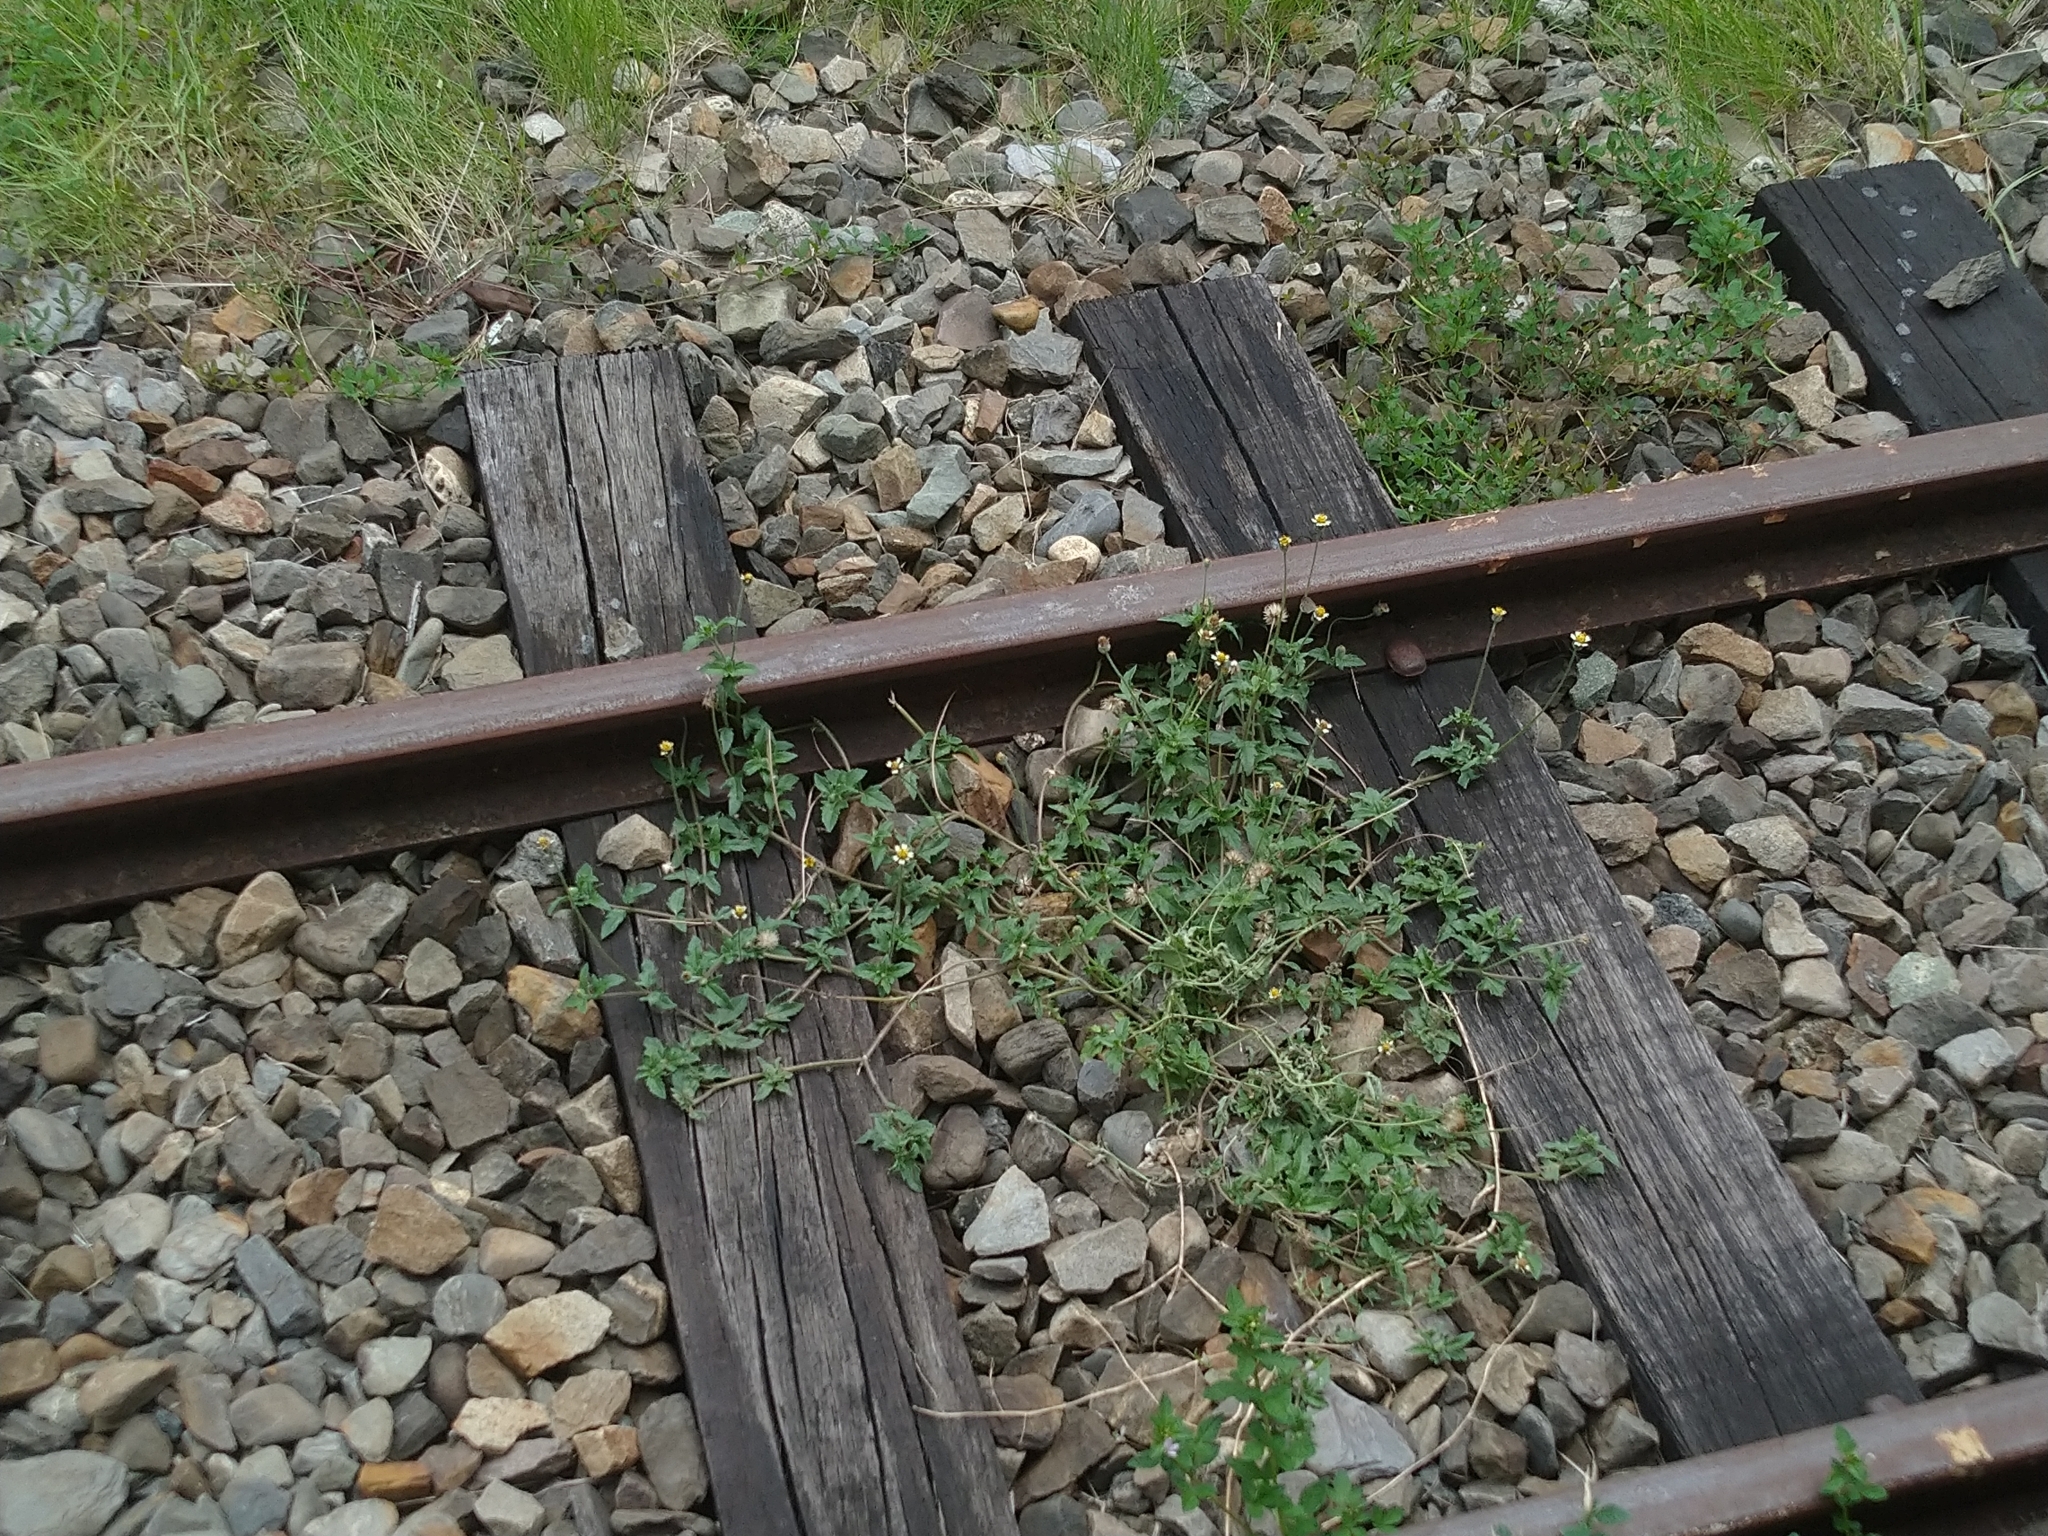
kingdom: Plantae
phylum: Tracheophyta
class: Magnoliopsida
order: Asterales
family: Asteraceae
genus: Tridax
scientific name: Tridax procumbens
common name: Coatbuttons
